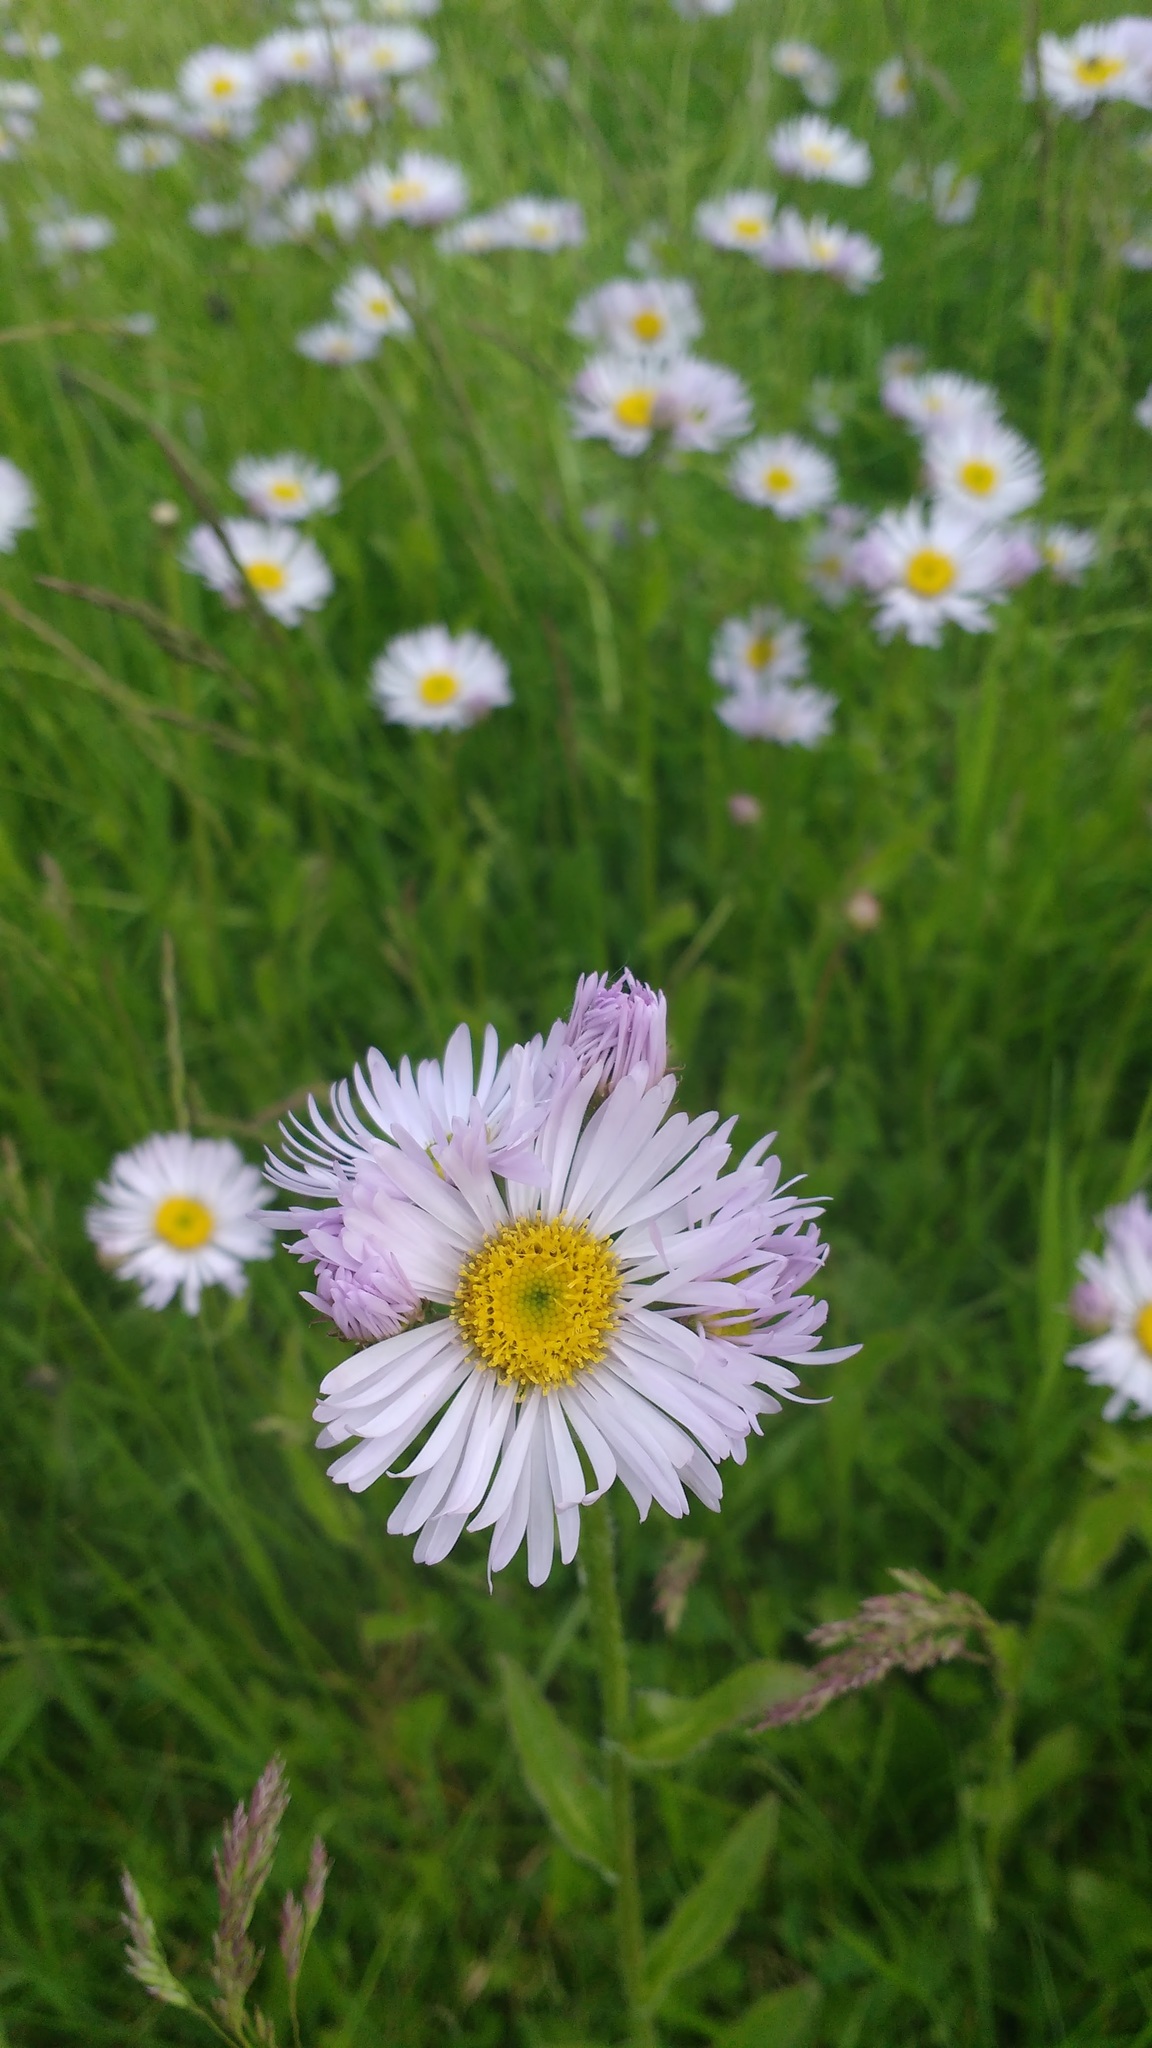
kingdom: Plantae
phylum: Tracheophyta
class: Magnoliopsida
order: Asterales
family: Asteraceae
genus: Erigeron
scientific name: Erigeron pulchellus
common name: Hairy fleabane
